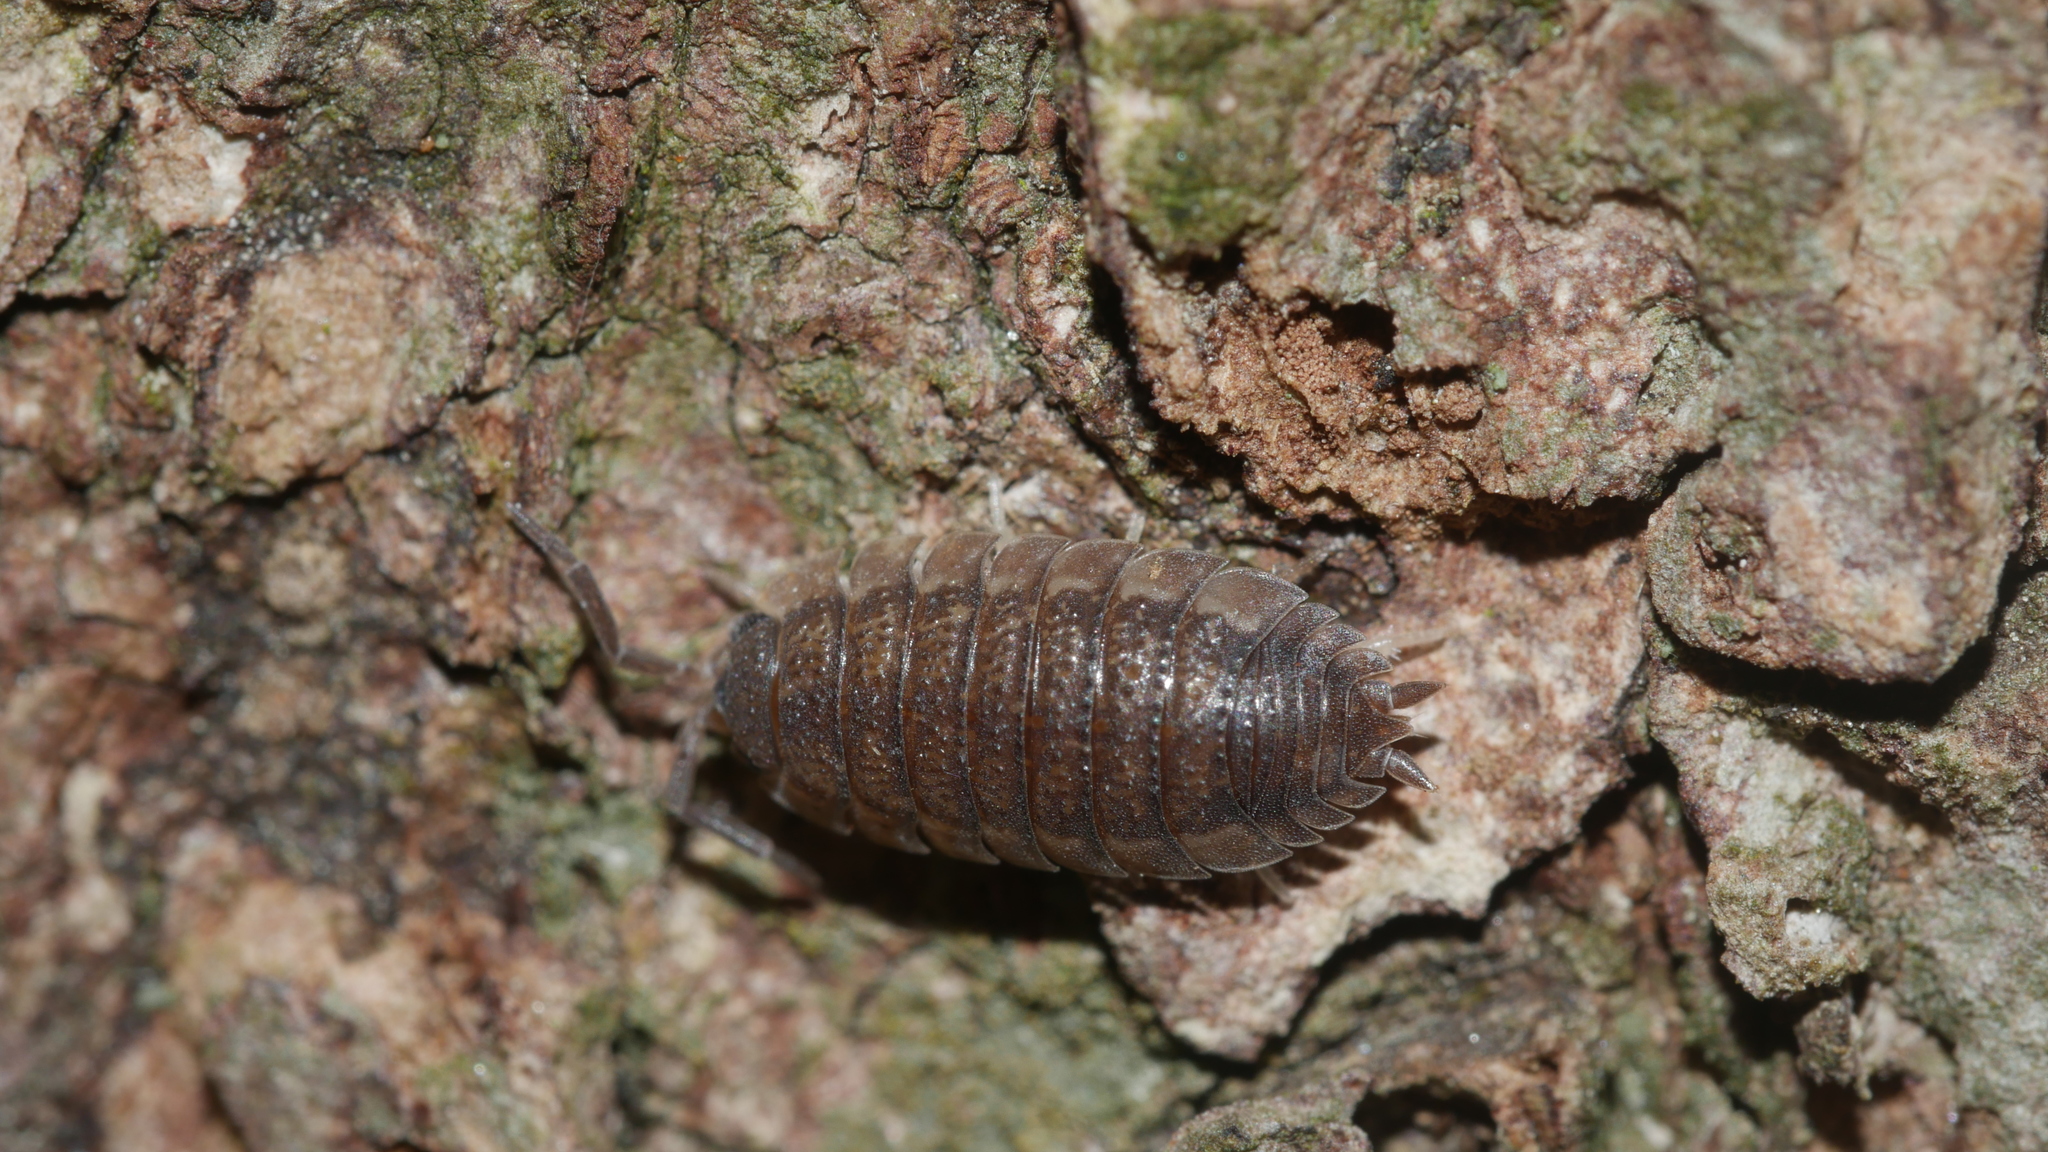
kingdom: Animalia
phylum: Arthropoda
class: Malacostraca
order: Isopoda
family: Porcellionidae
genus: Porcellio
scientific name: Porcellio scaber
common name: Common rough woodlouse
